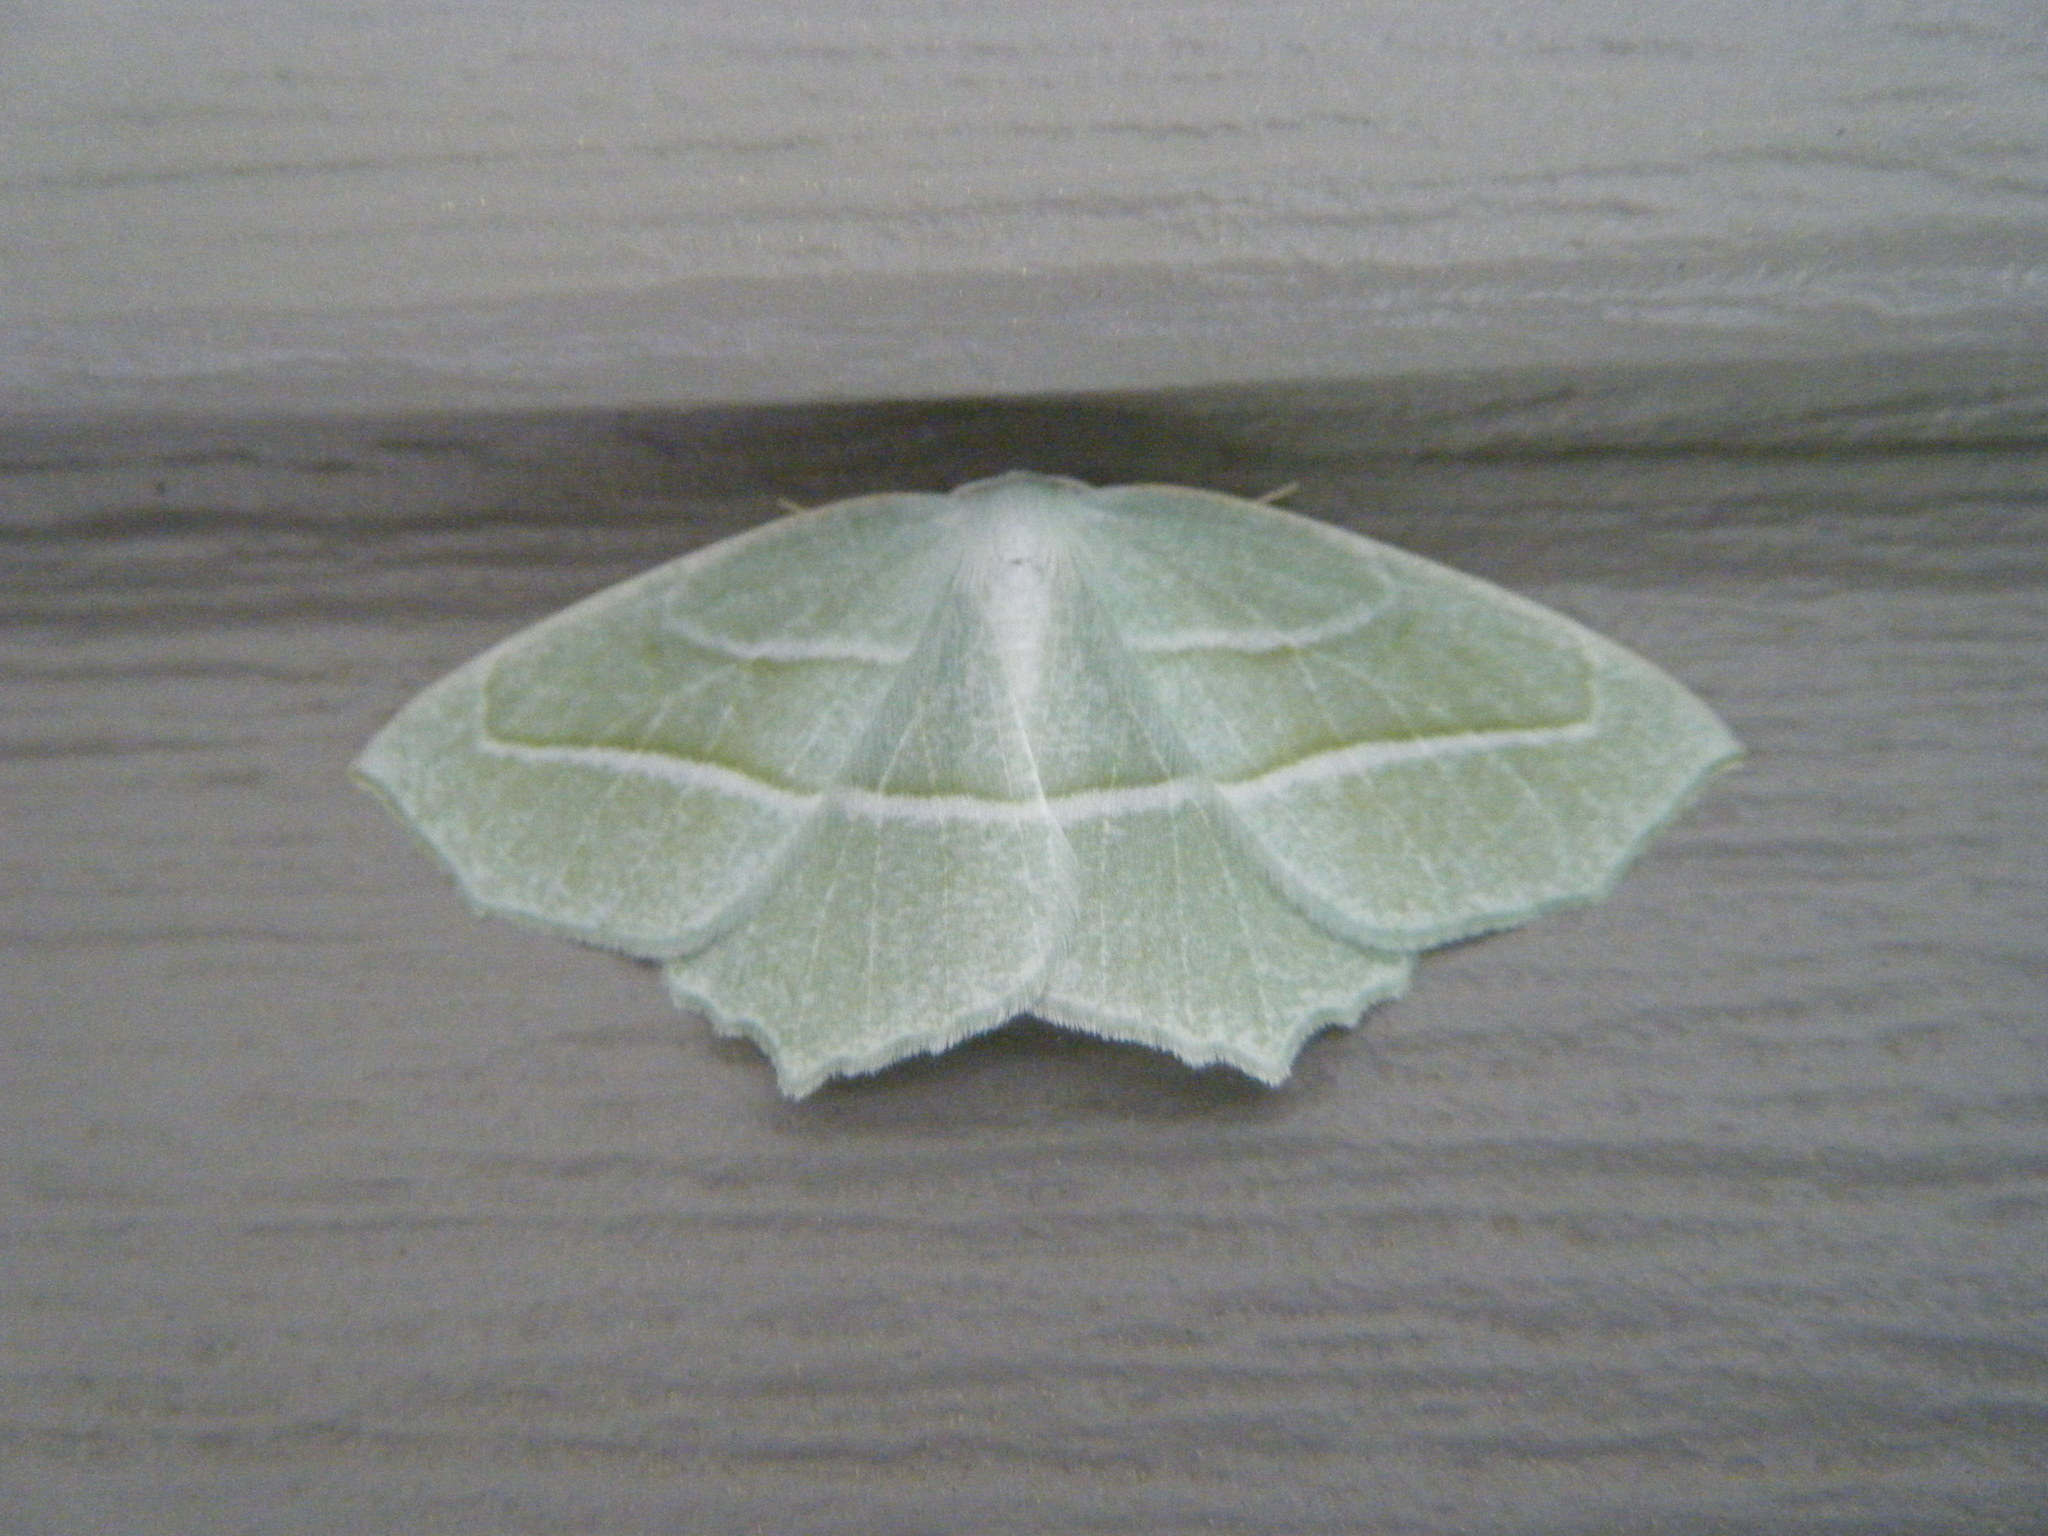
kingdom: Animalia
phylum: Arthropoda
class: Insecta
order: Lepidoptera
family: Geometridae
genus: Campaea
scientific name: Campaea perlata
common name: Fringed looper
